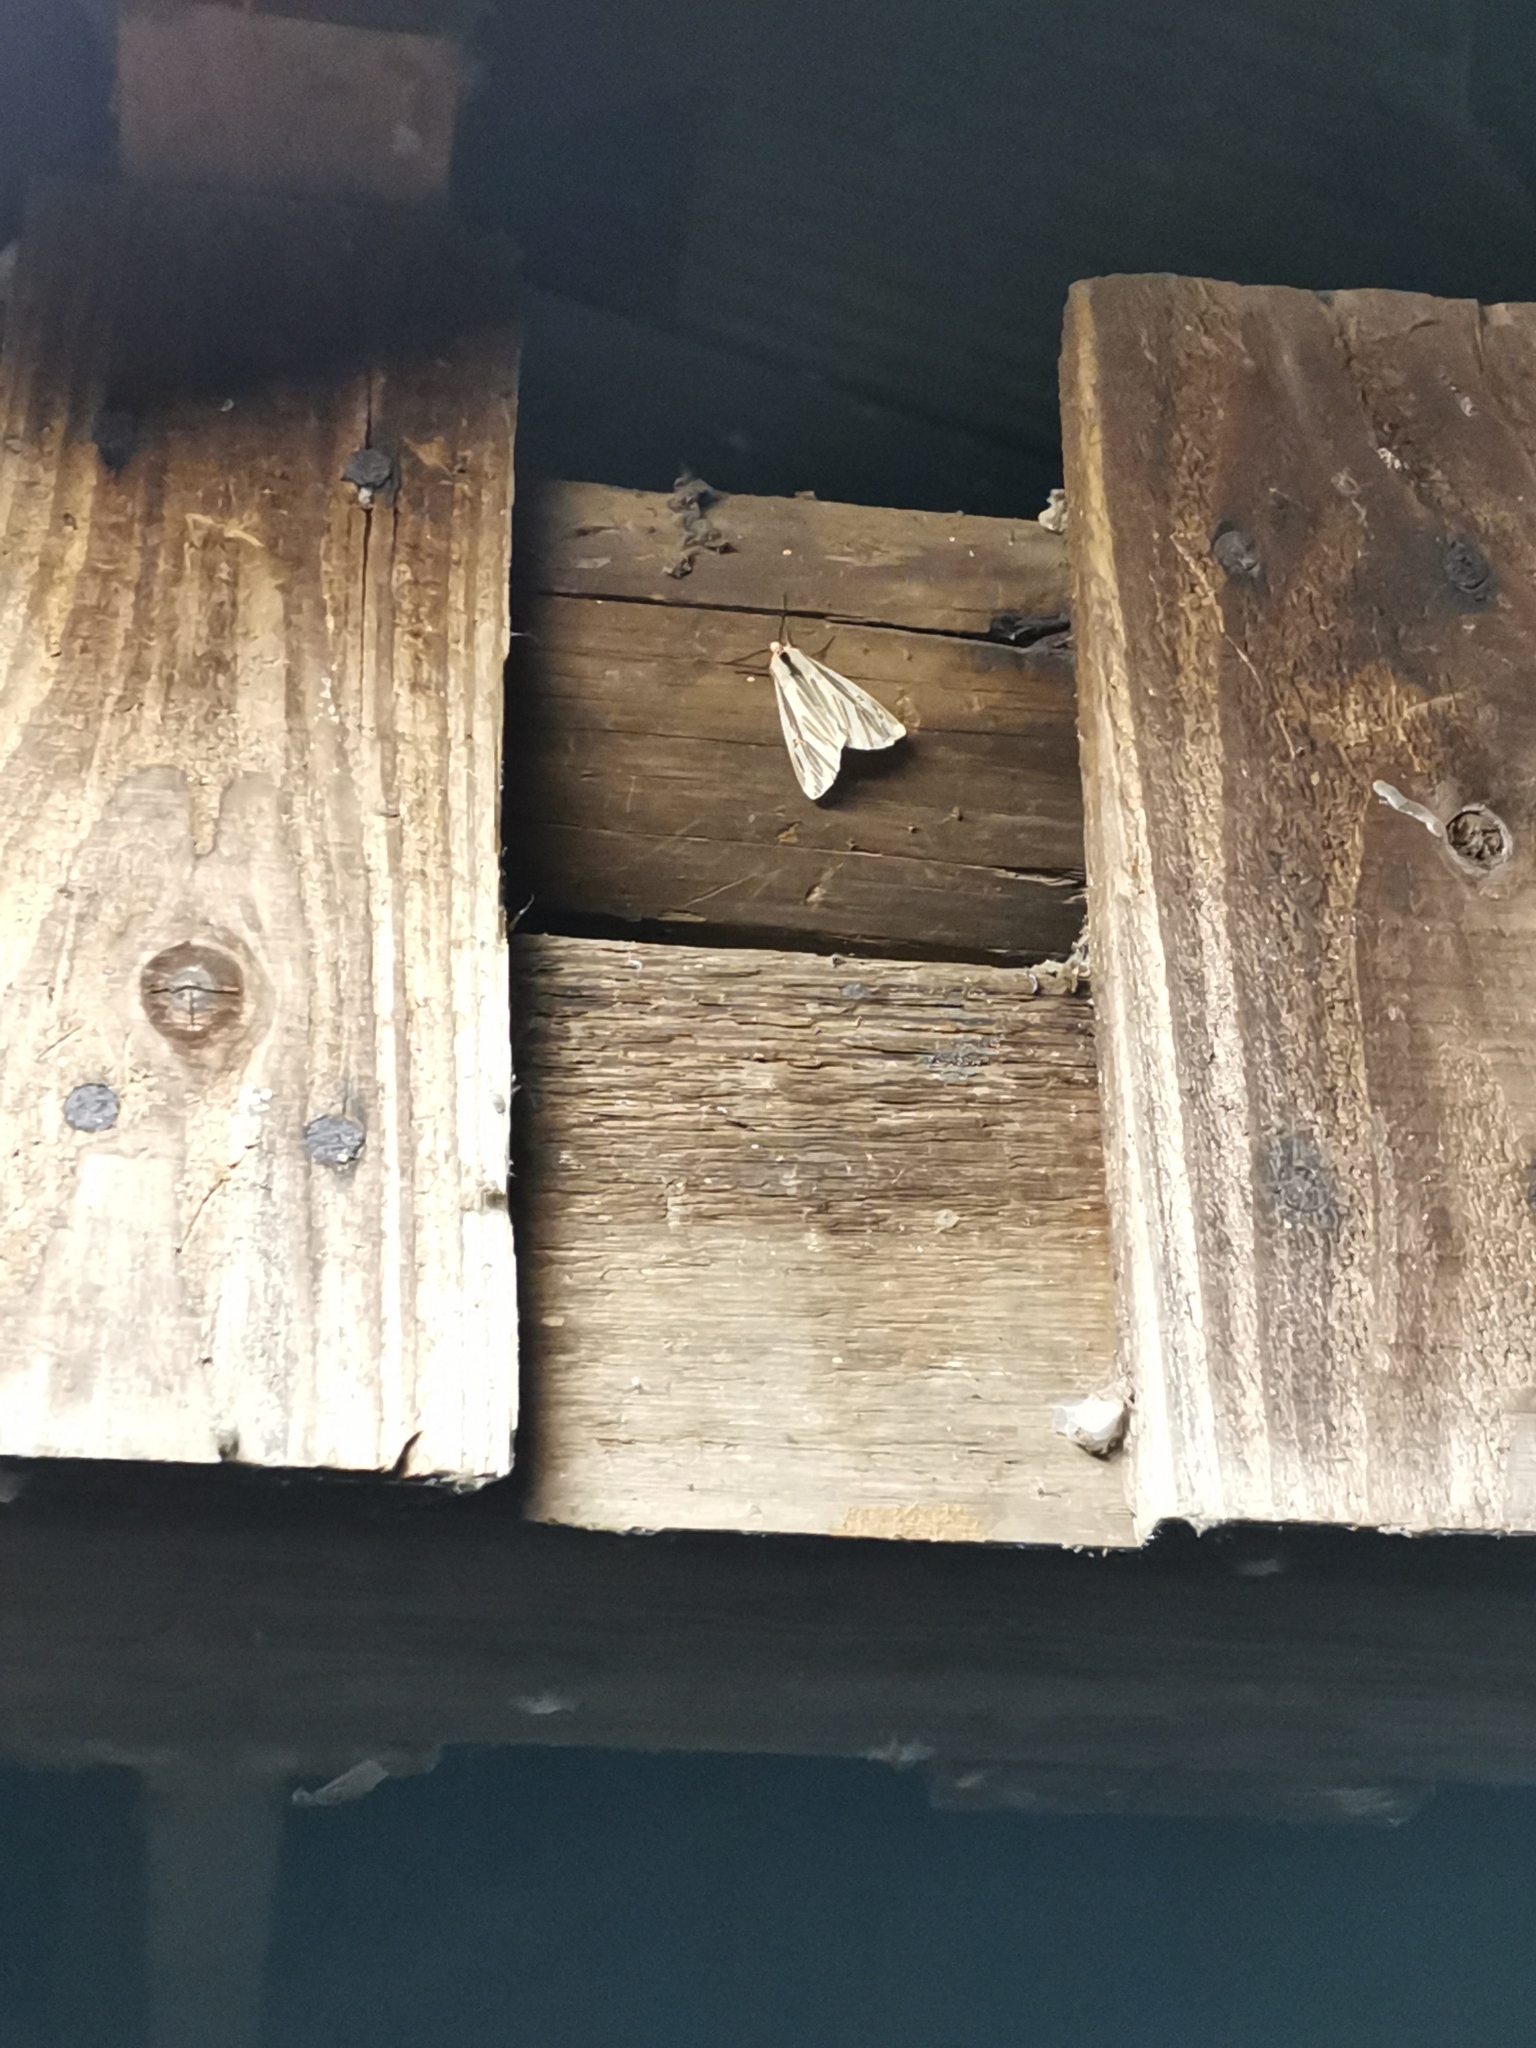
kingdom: Animalia
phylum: Arthropoda
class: Insecta
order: Lepidoptera
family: Erebidae
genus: Eospilarctia
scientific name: Eospilarctia lewisii
